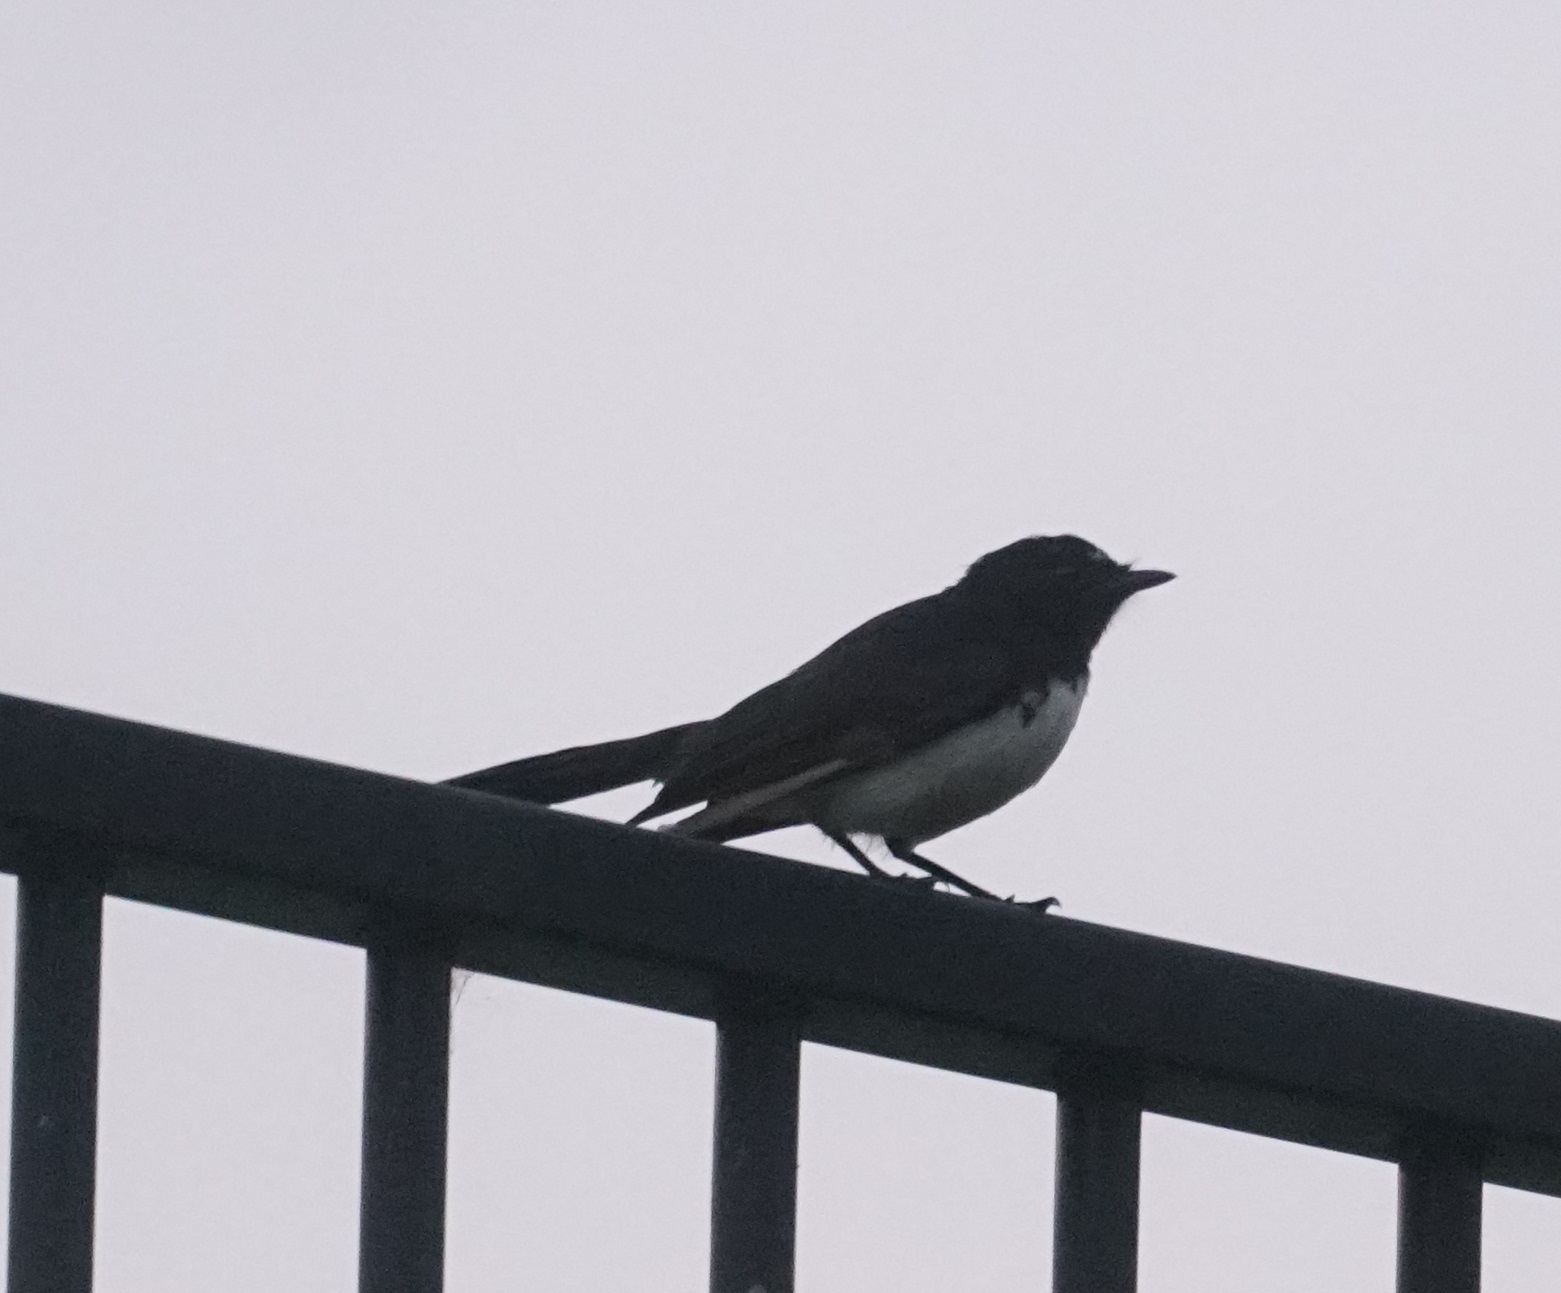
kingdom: Animalia
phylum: Chordata
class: Aves
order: Passeriformes
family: Rhipiduridae
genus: Rhipidura
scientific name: Rhipidura leucophrys
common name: Willie wagtail
